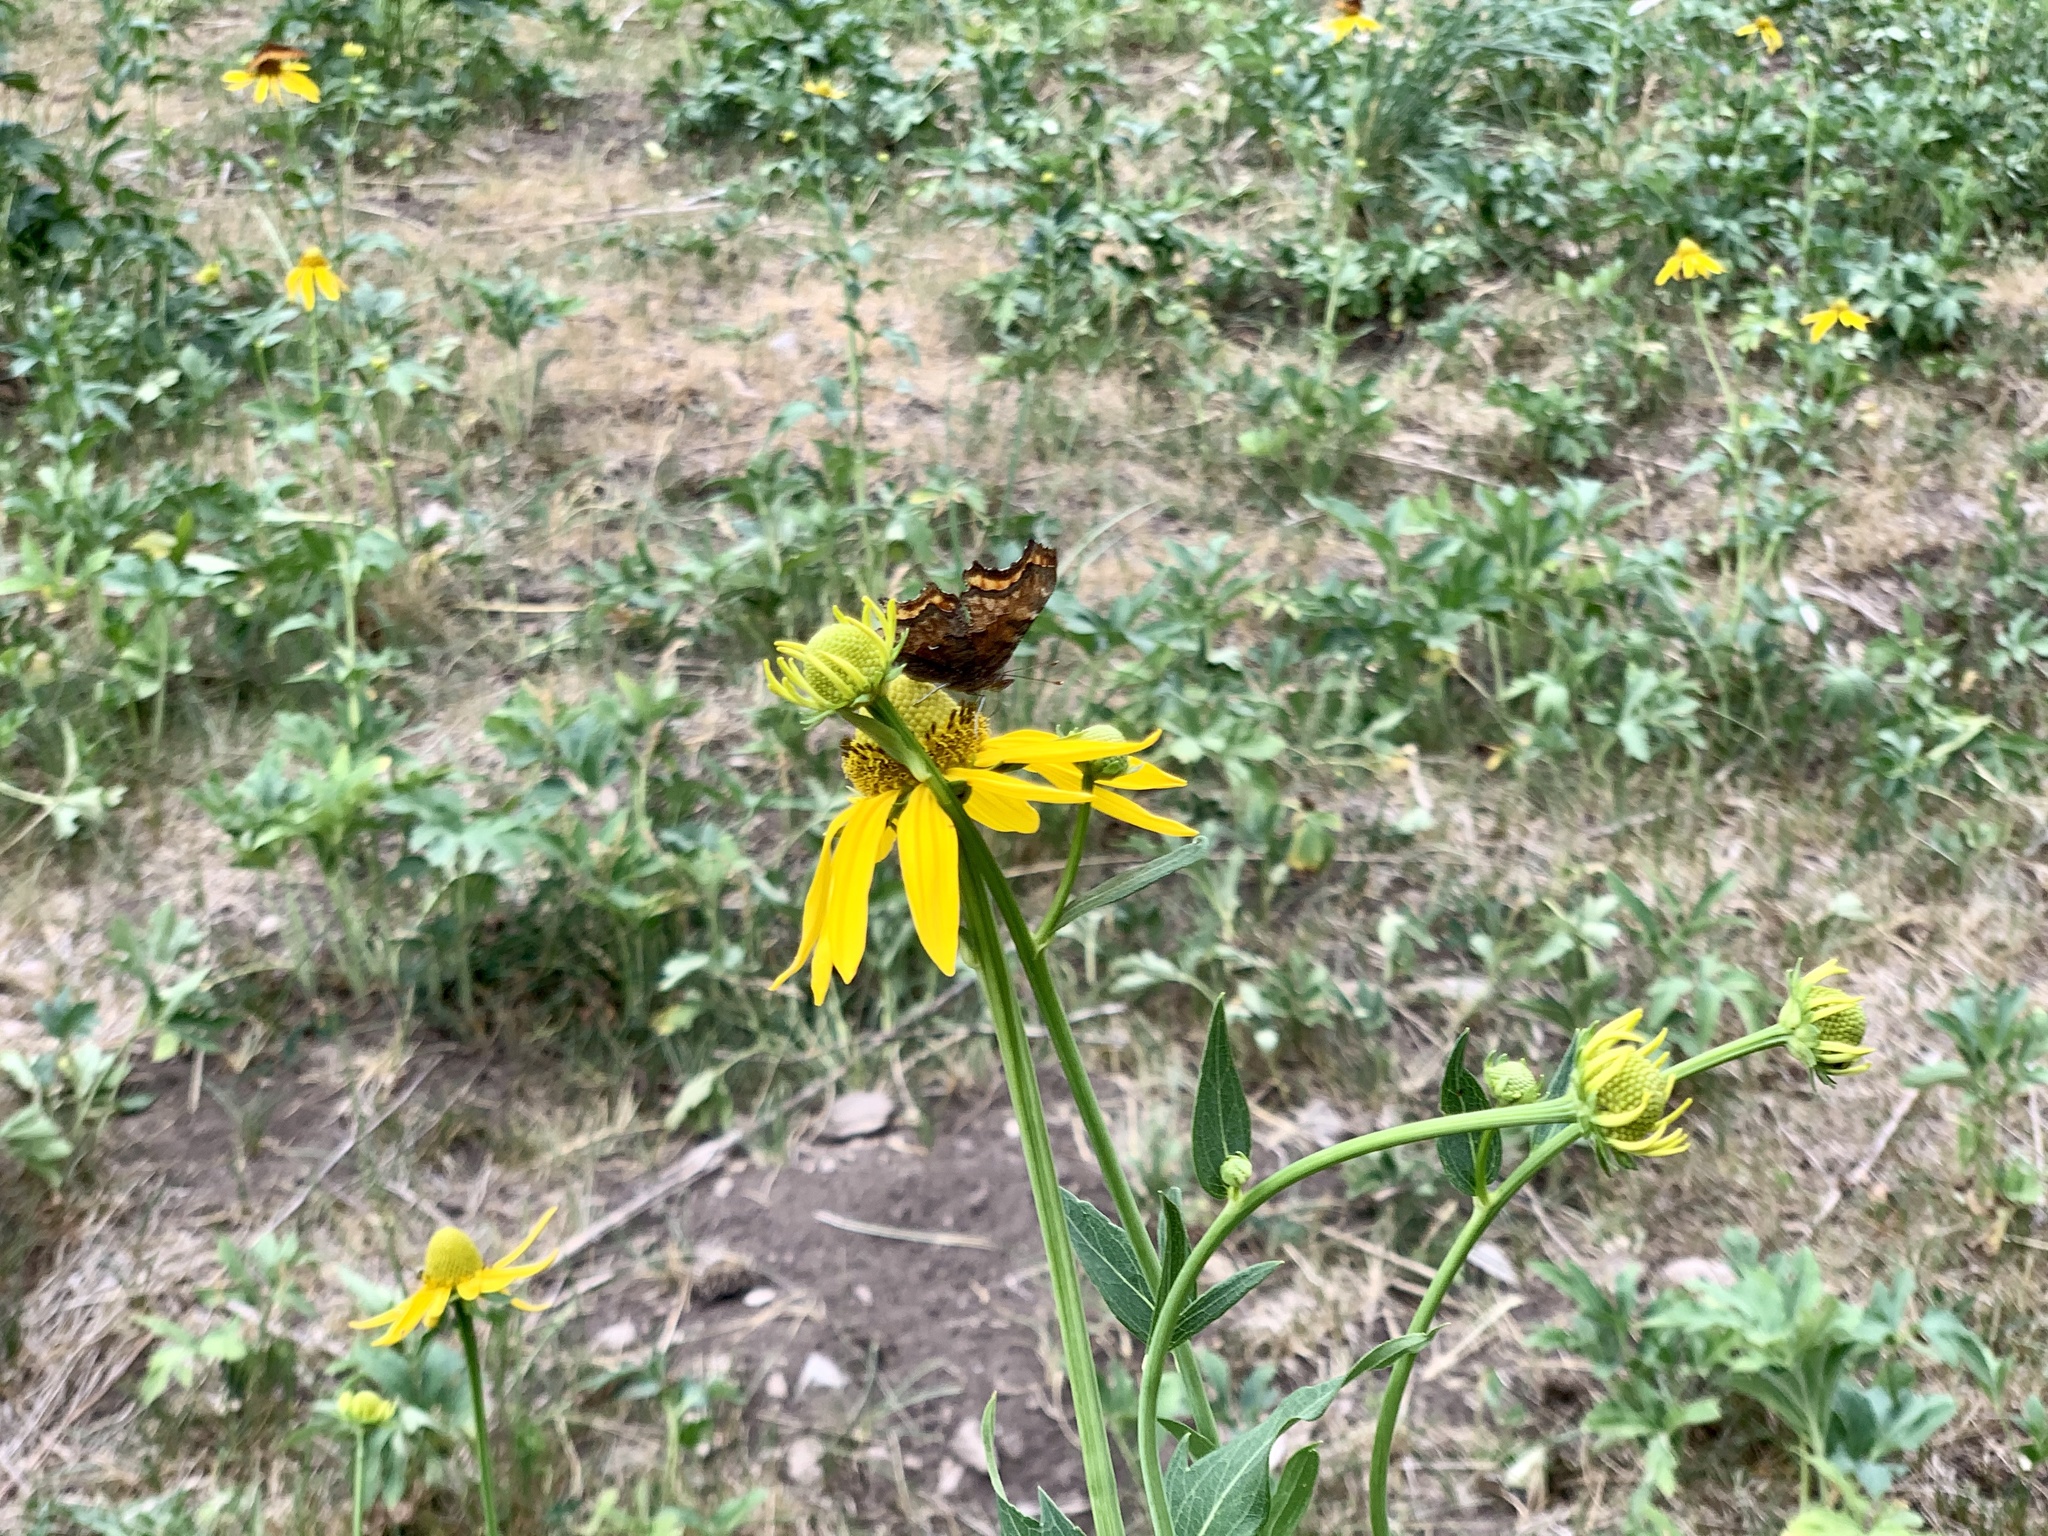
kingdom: Animalia
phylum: Arthropoda
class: Insecta
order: Lepidoptera
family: Nymphalidae
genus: Polygonia
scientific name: Polygonia gracilis
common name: Hoary comma
